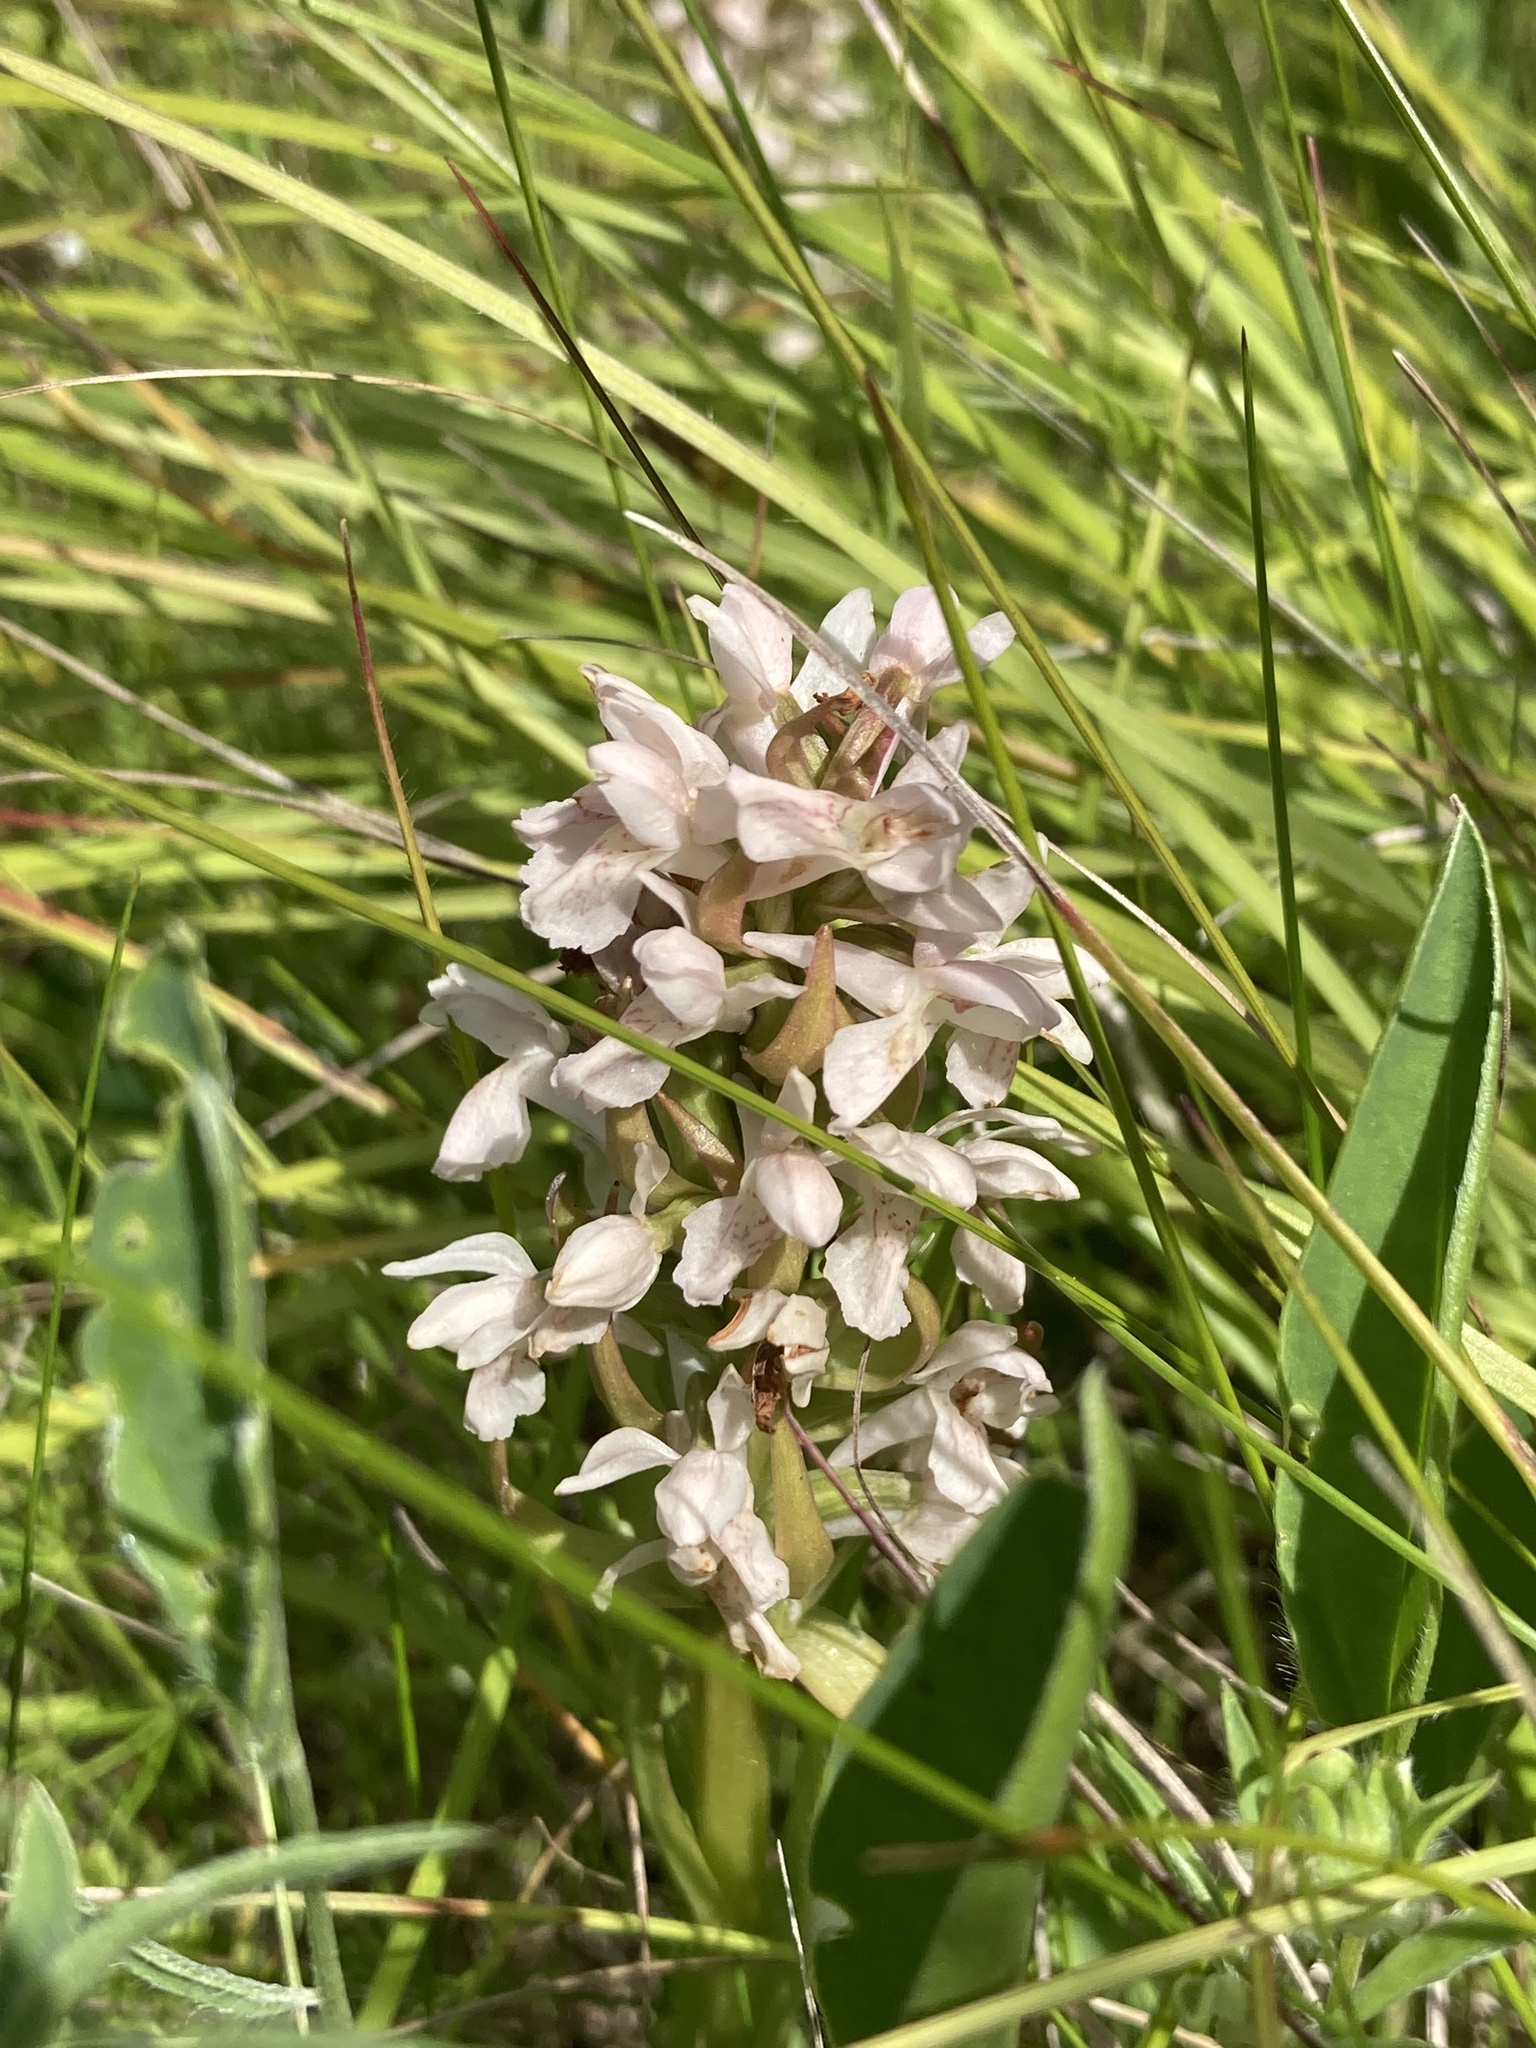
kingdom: Plantae
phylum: Tracheophyta
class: Liliopsida
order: Asparagales
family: Orchidaceae
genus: Dactylorhiza
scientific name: Dactylorhiza incarnata
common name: Early marsh-orchid
